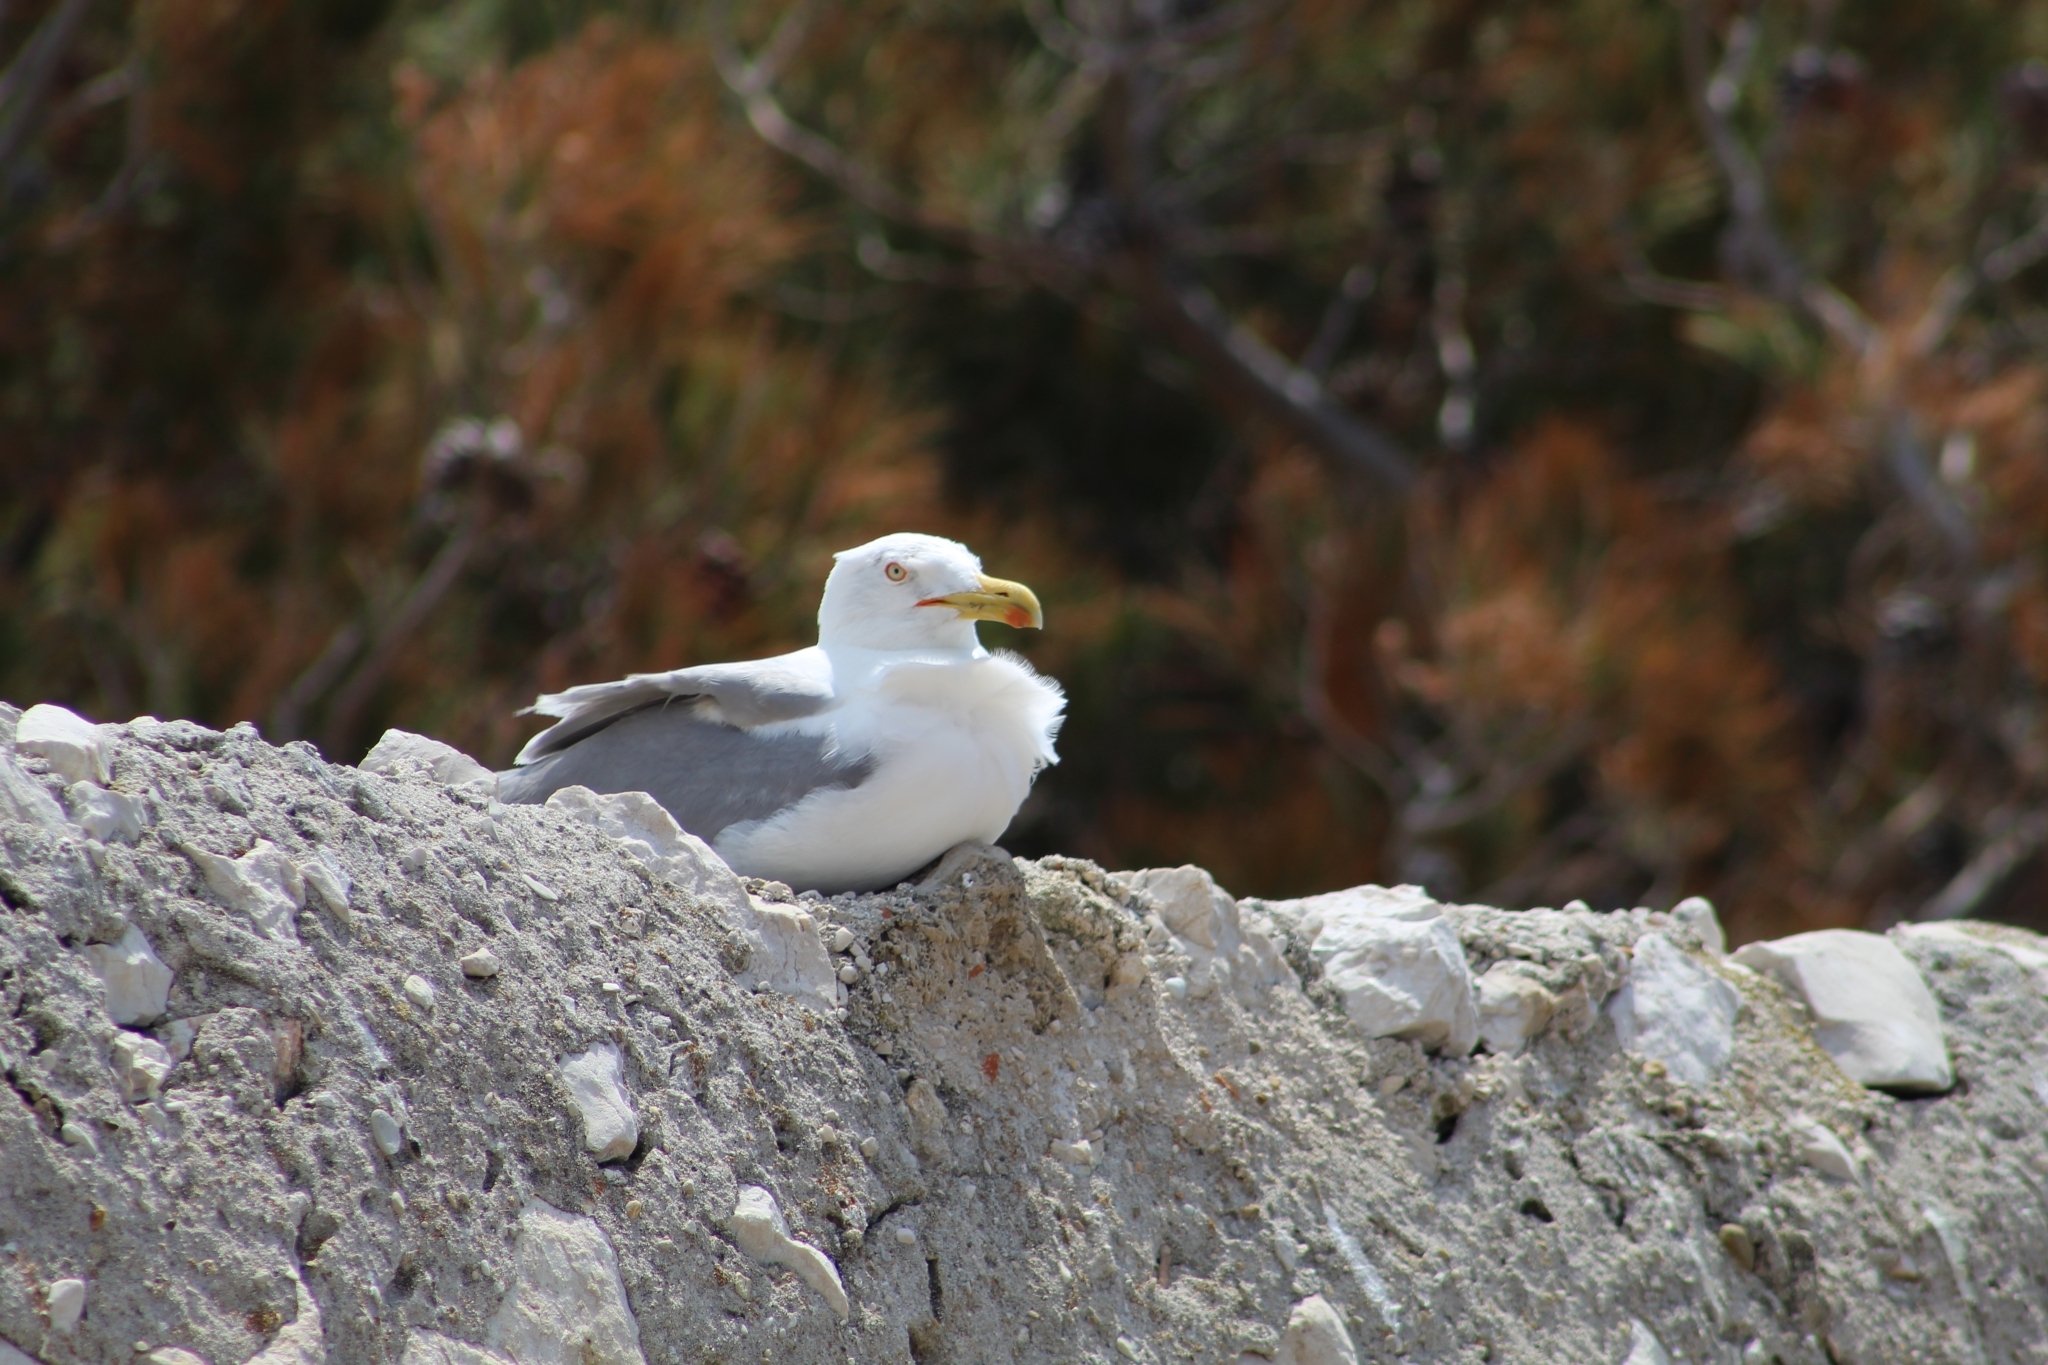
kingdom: Animalia
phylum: Chordata
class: Aves
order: Charadriiformes
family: Laridae
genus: Larus
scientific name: Larus michahellis
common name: Yellow-legged gull
